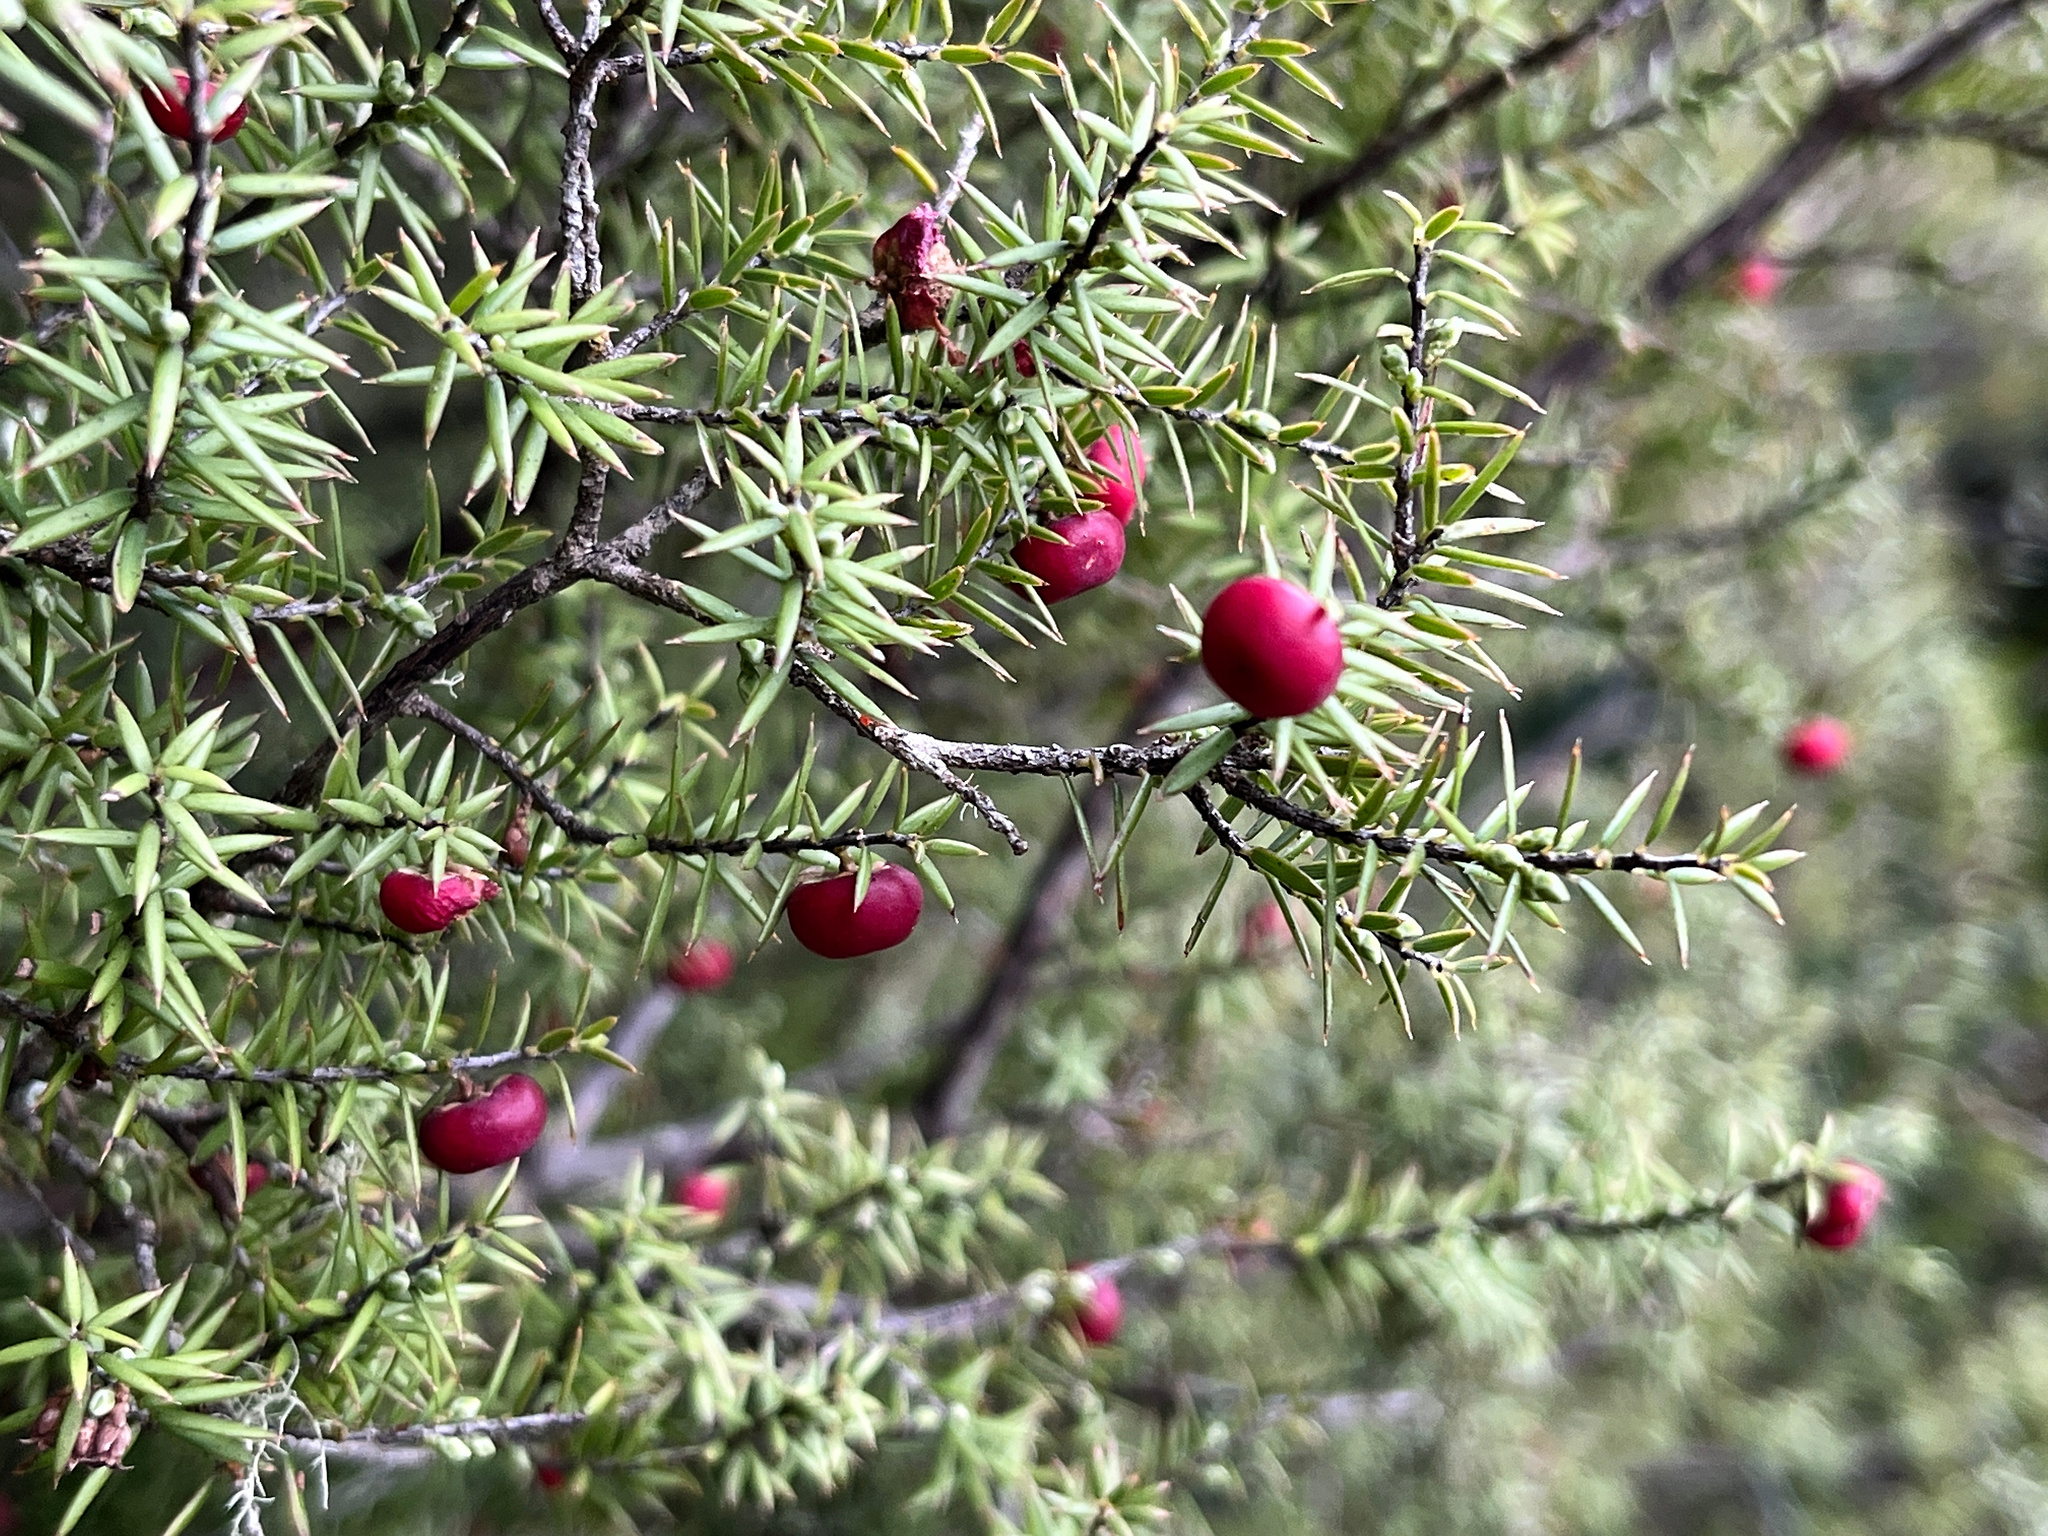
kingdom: Plantae
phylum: Tracheophyta
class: Magnoliopsida
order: Ericales
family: Ericaceae
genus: Leptecophylla
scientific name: Leptecophylla juniperina
